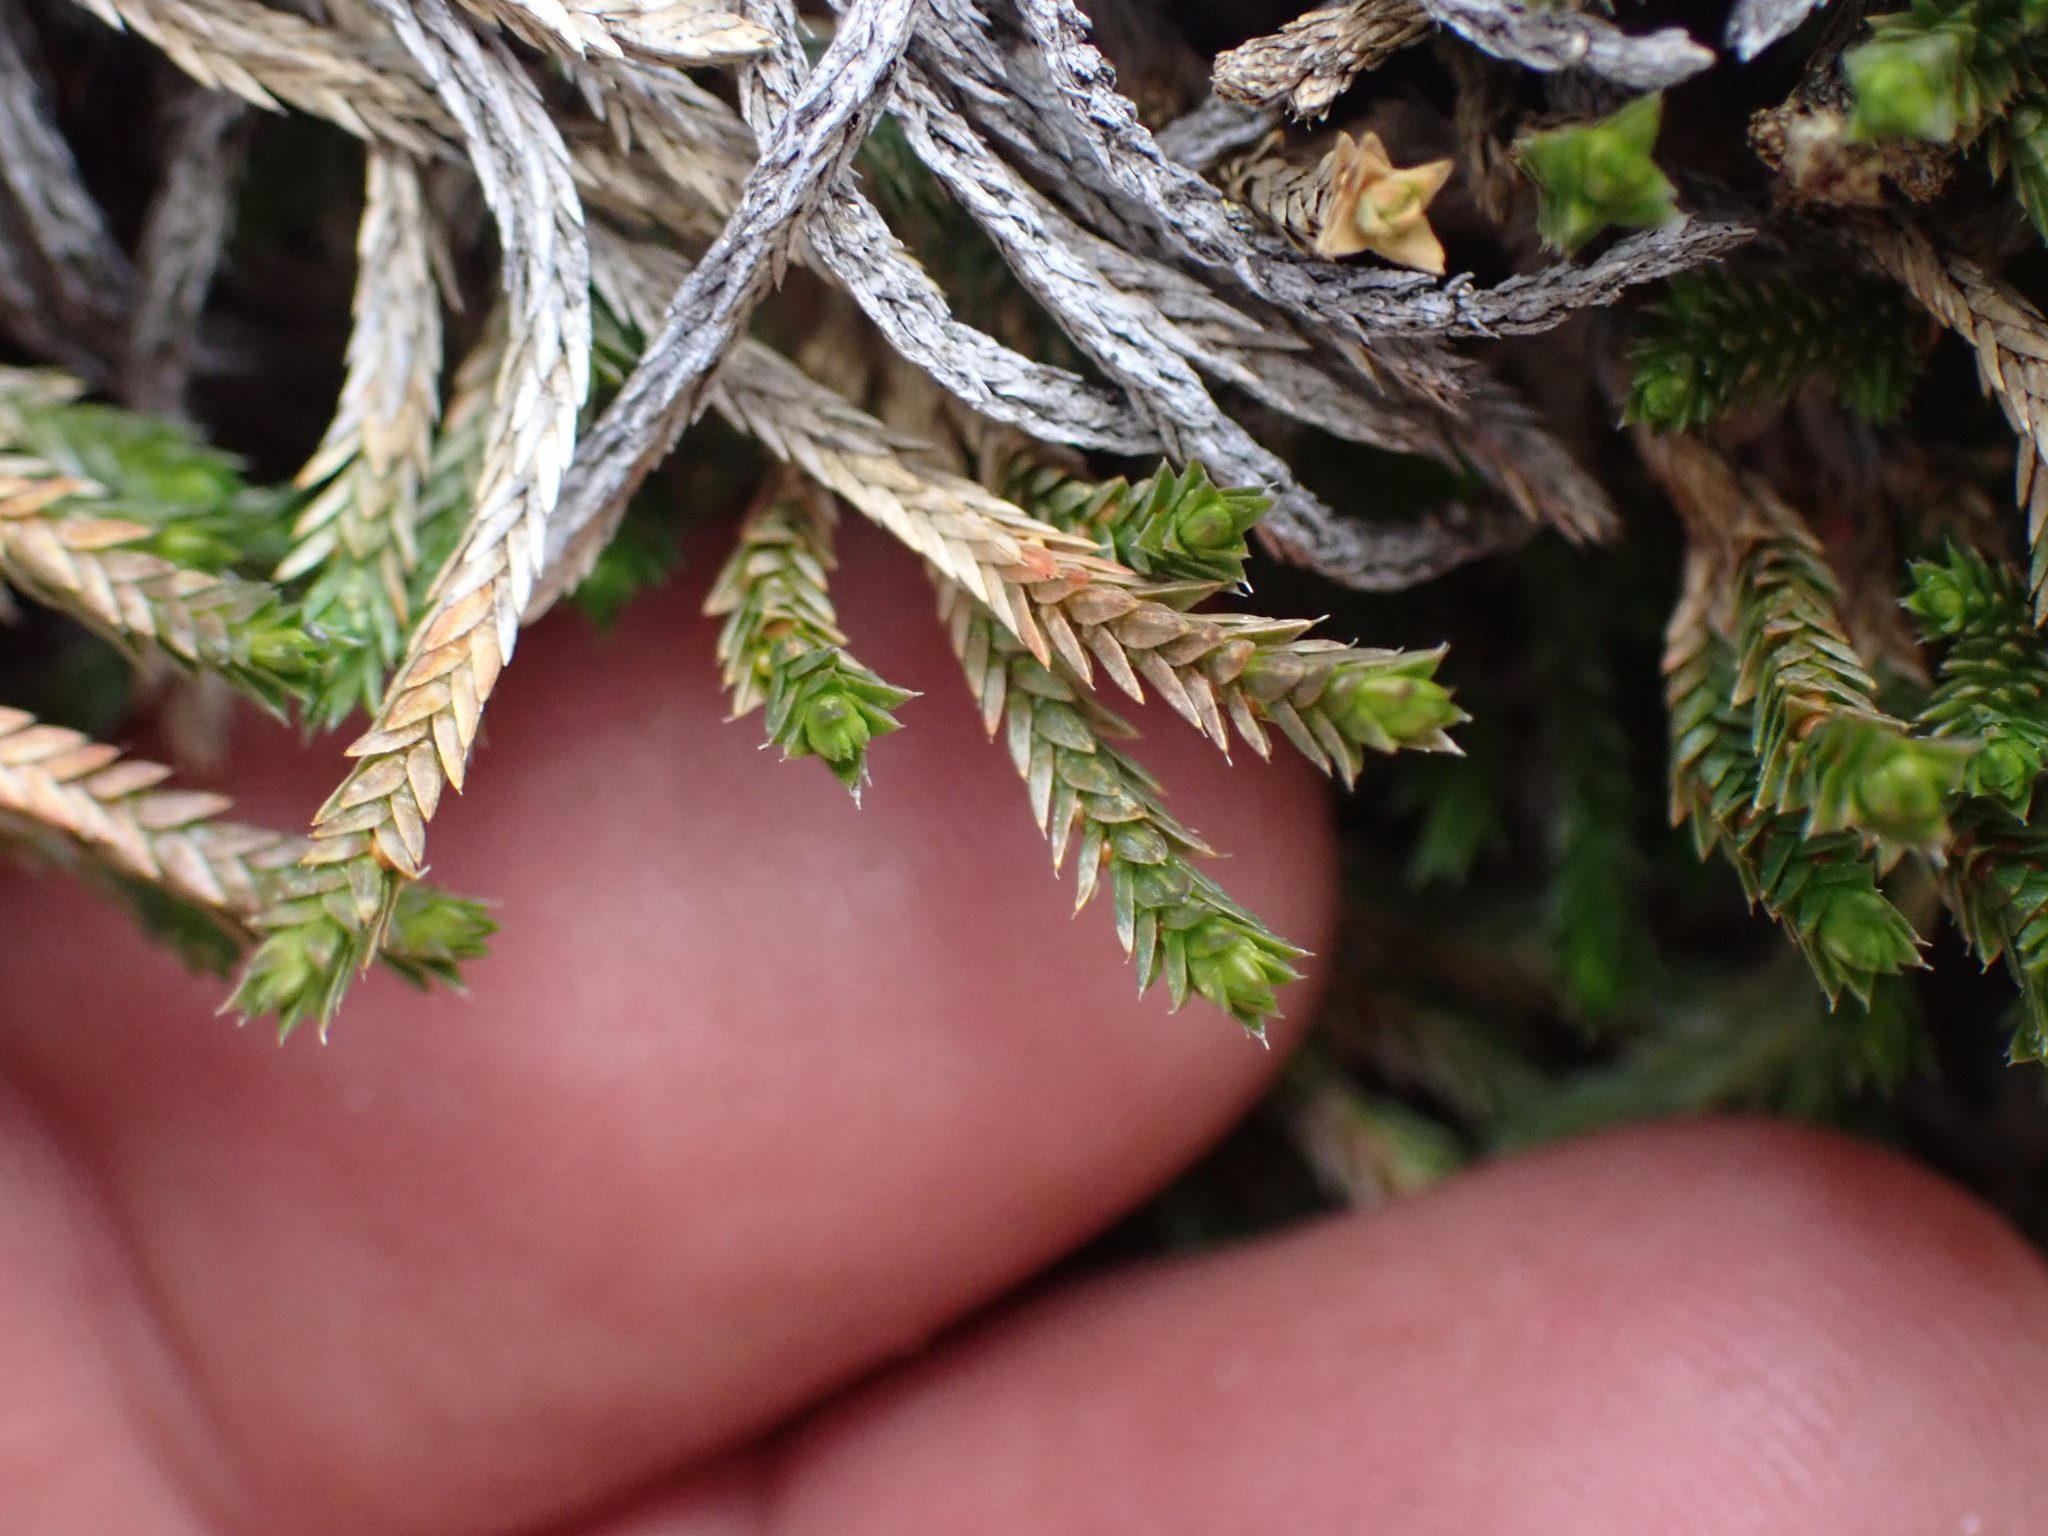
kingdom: Plantae
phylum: Tracheophyta
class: Lycopodiopsida
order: Selaginellales
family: Selaginellaceae
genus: Selaginella
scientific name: Selaginella wallacei
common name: Wallace's selaginella
